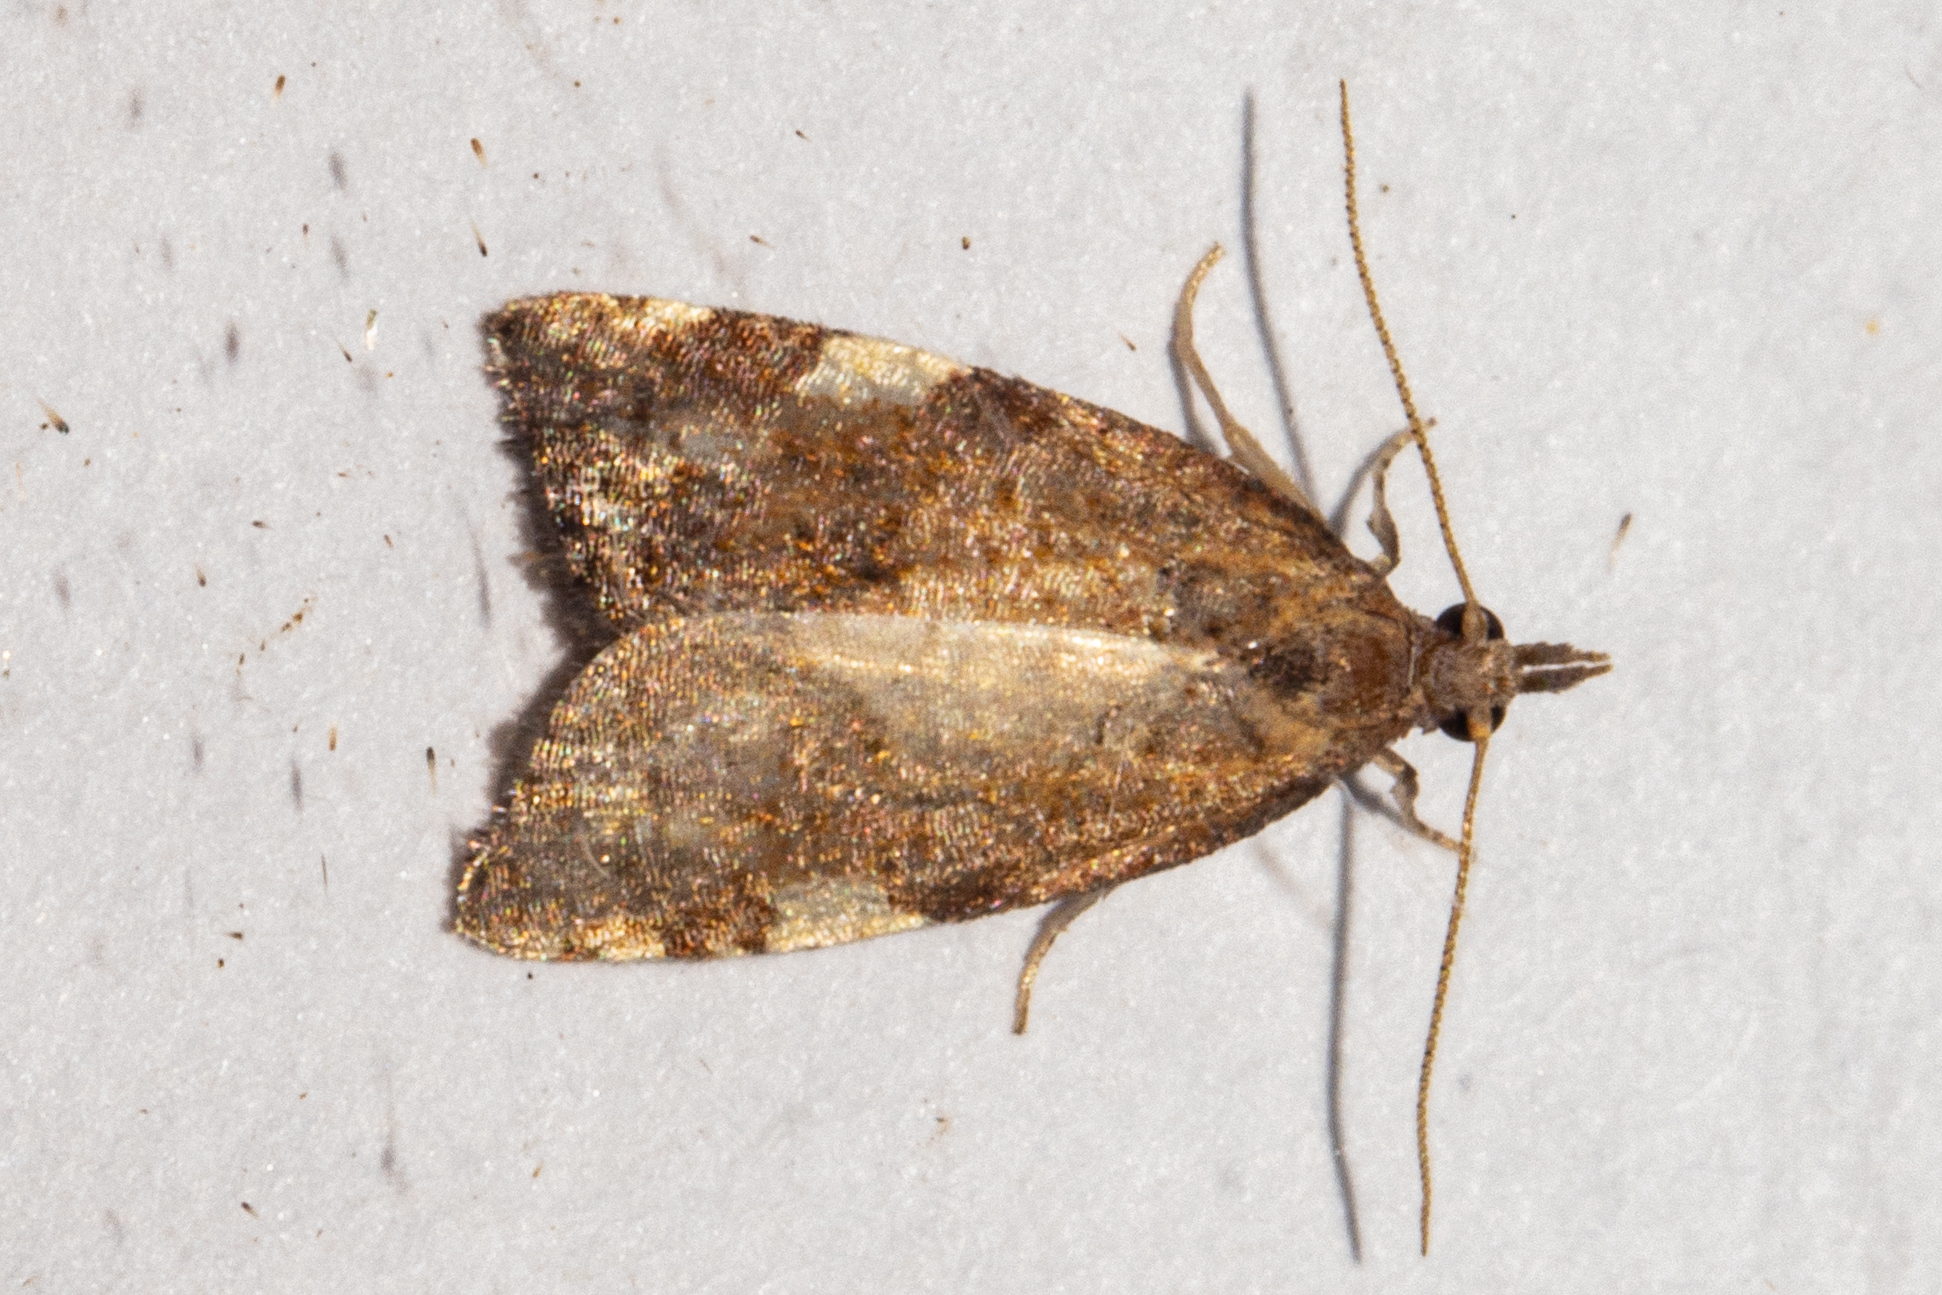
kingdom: Animalia
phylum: Arthropoda
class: Insecta
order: Lepidoptera
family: Tortricidae
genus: Catamacta
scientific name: Catamacta gavisana
